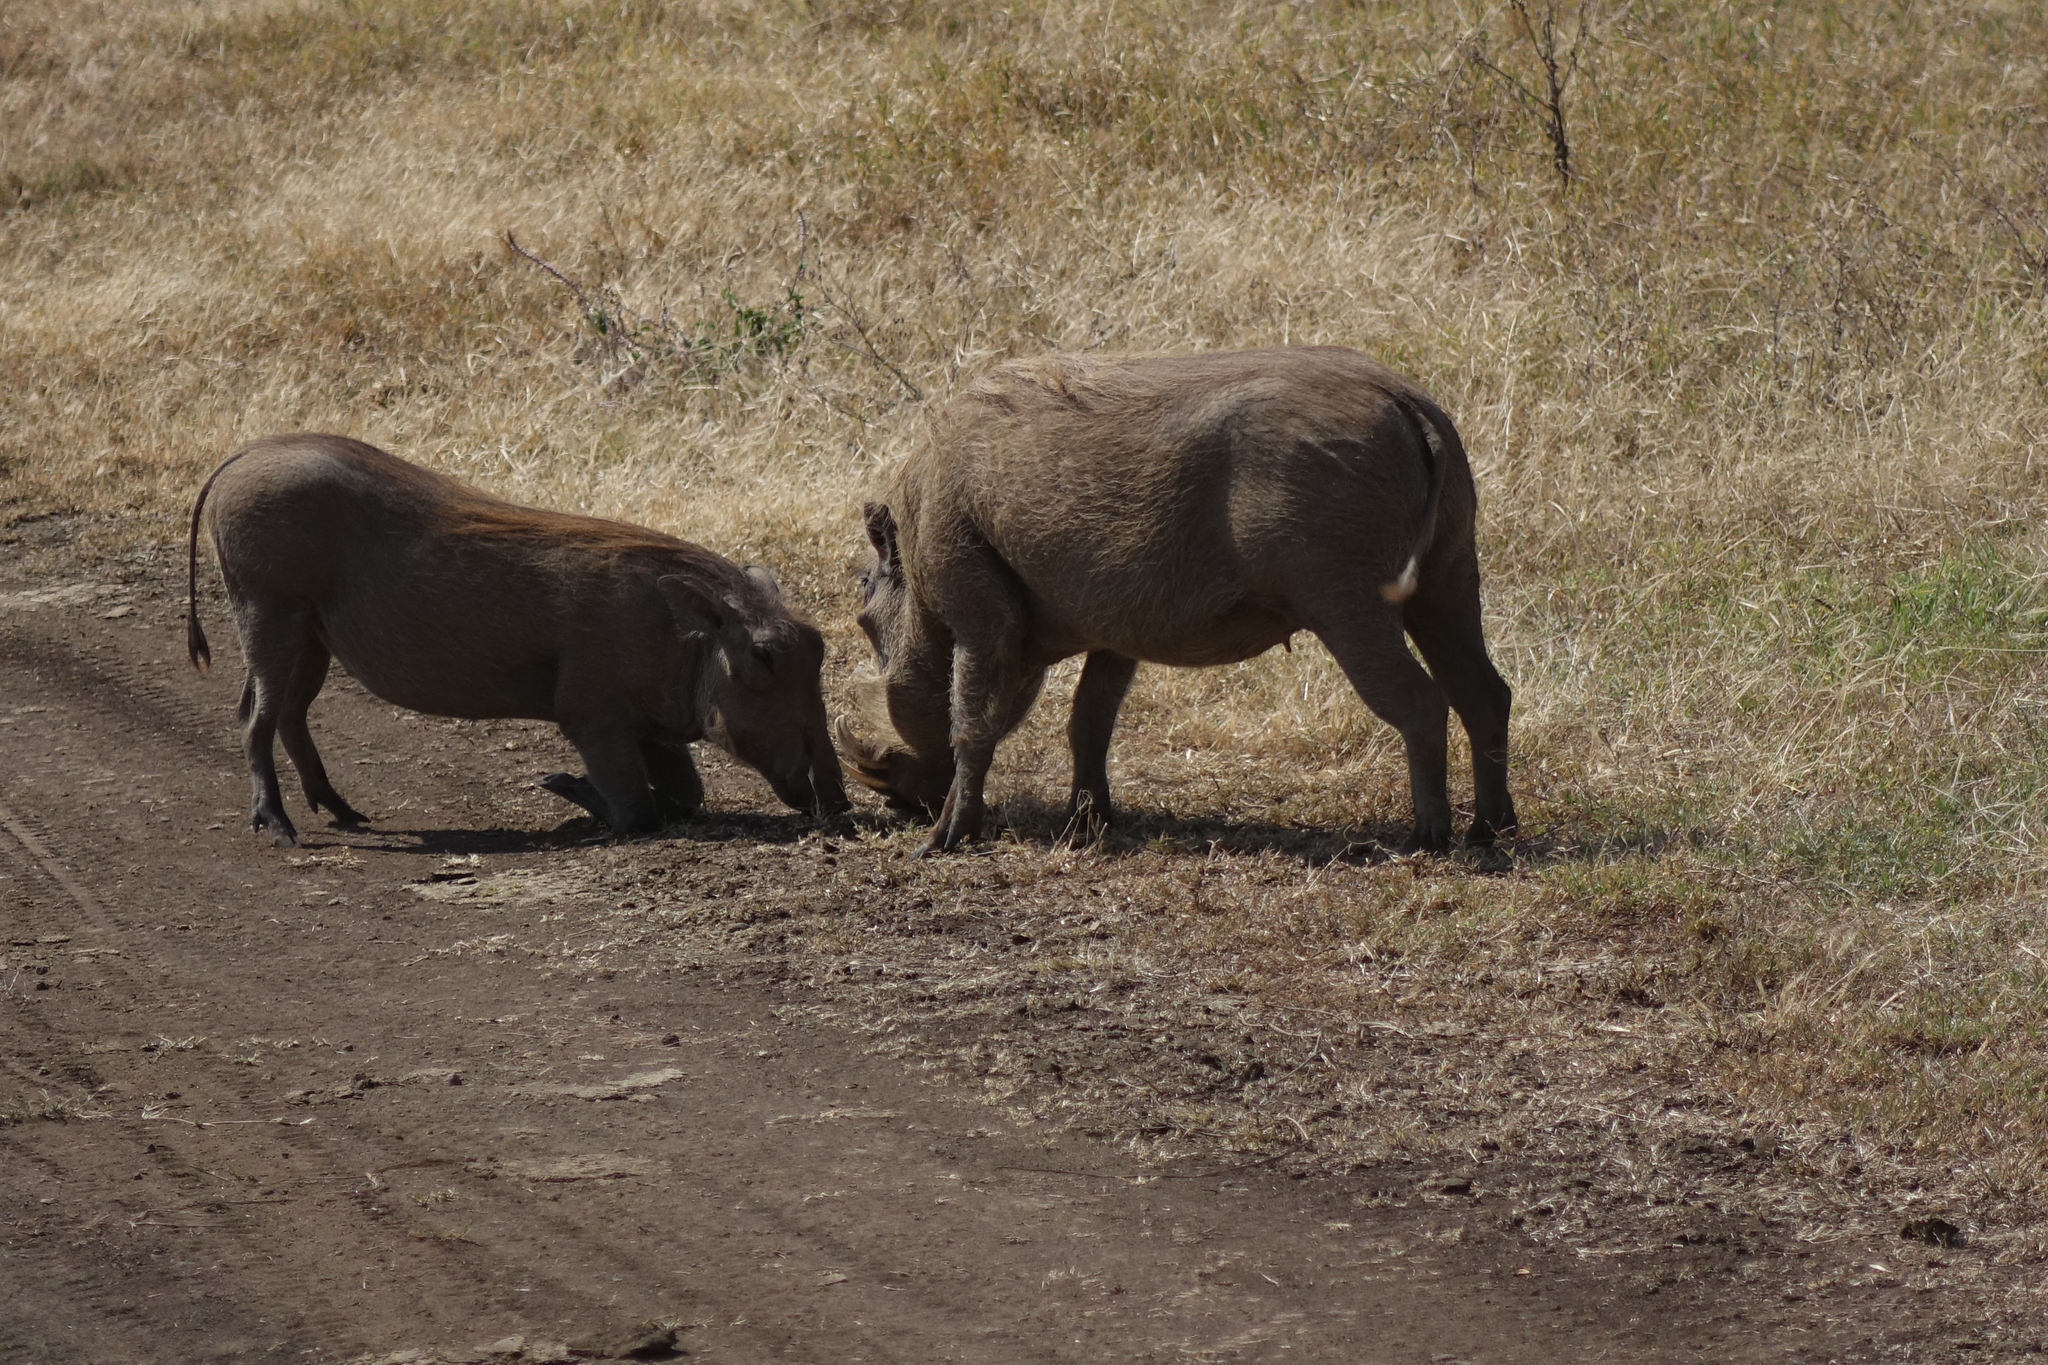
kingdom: Animalia
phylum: Chordata
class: Mammalia
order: Artiodactyla
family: Suidae
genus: Phacochoerus
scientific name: Phacochoerus africanus
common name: Common warthog
